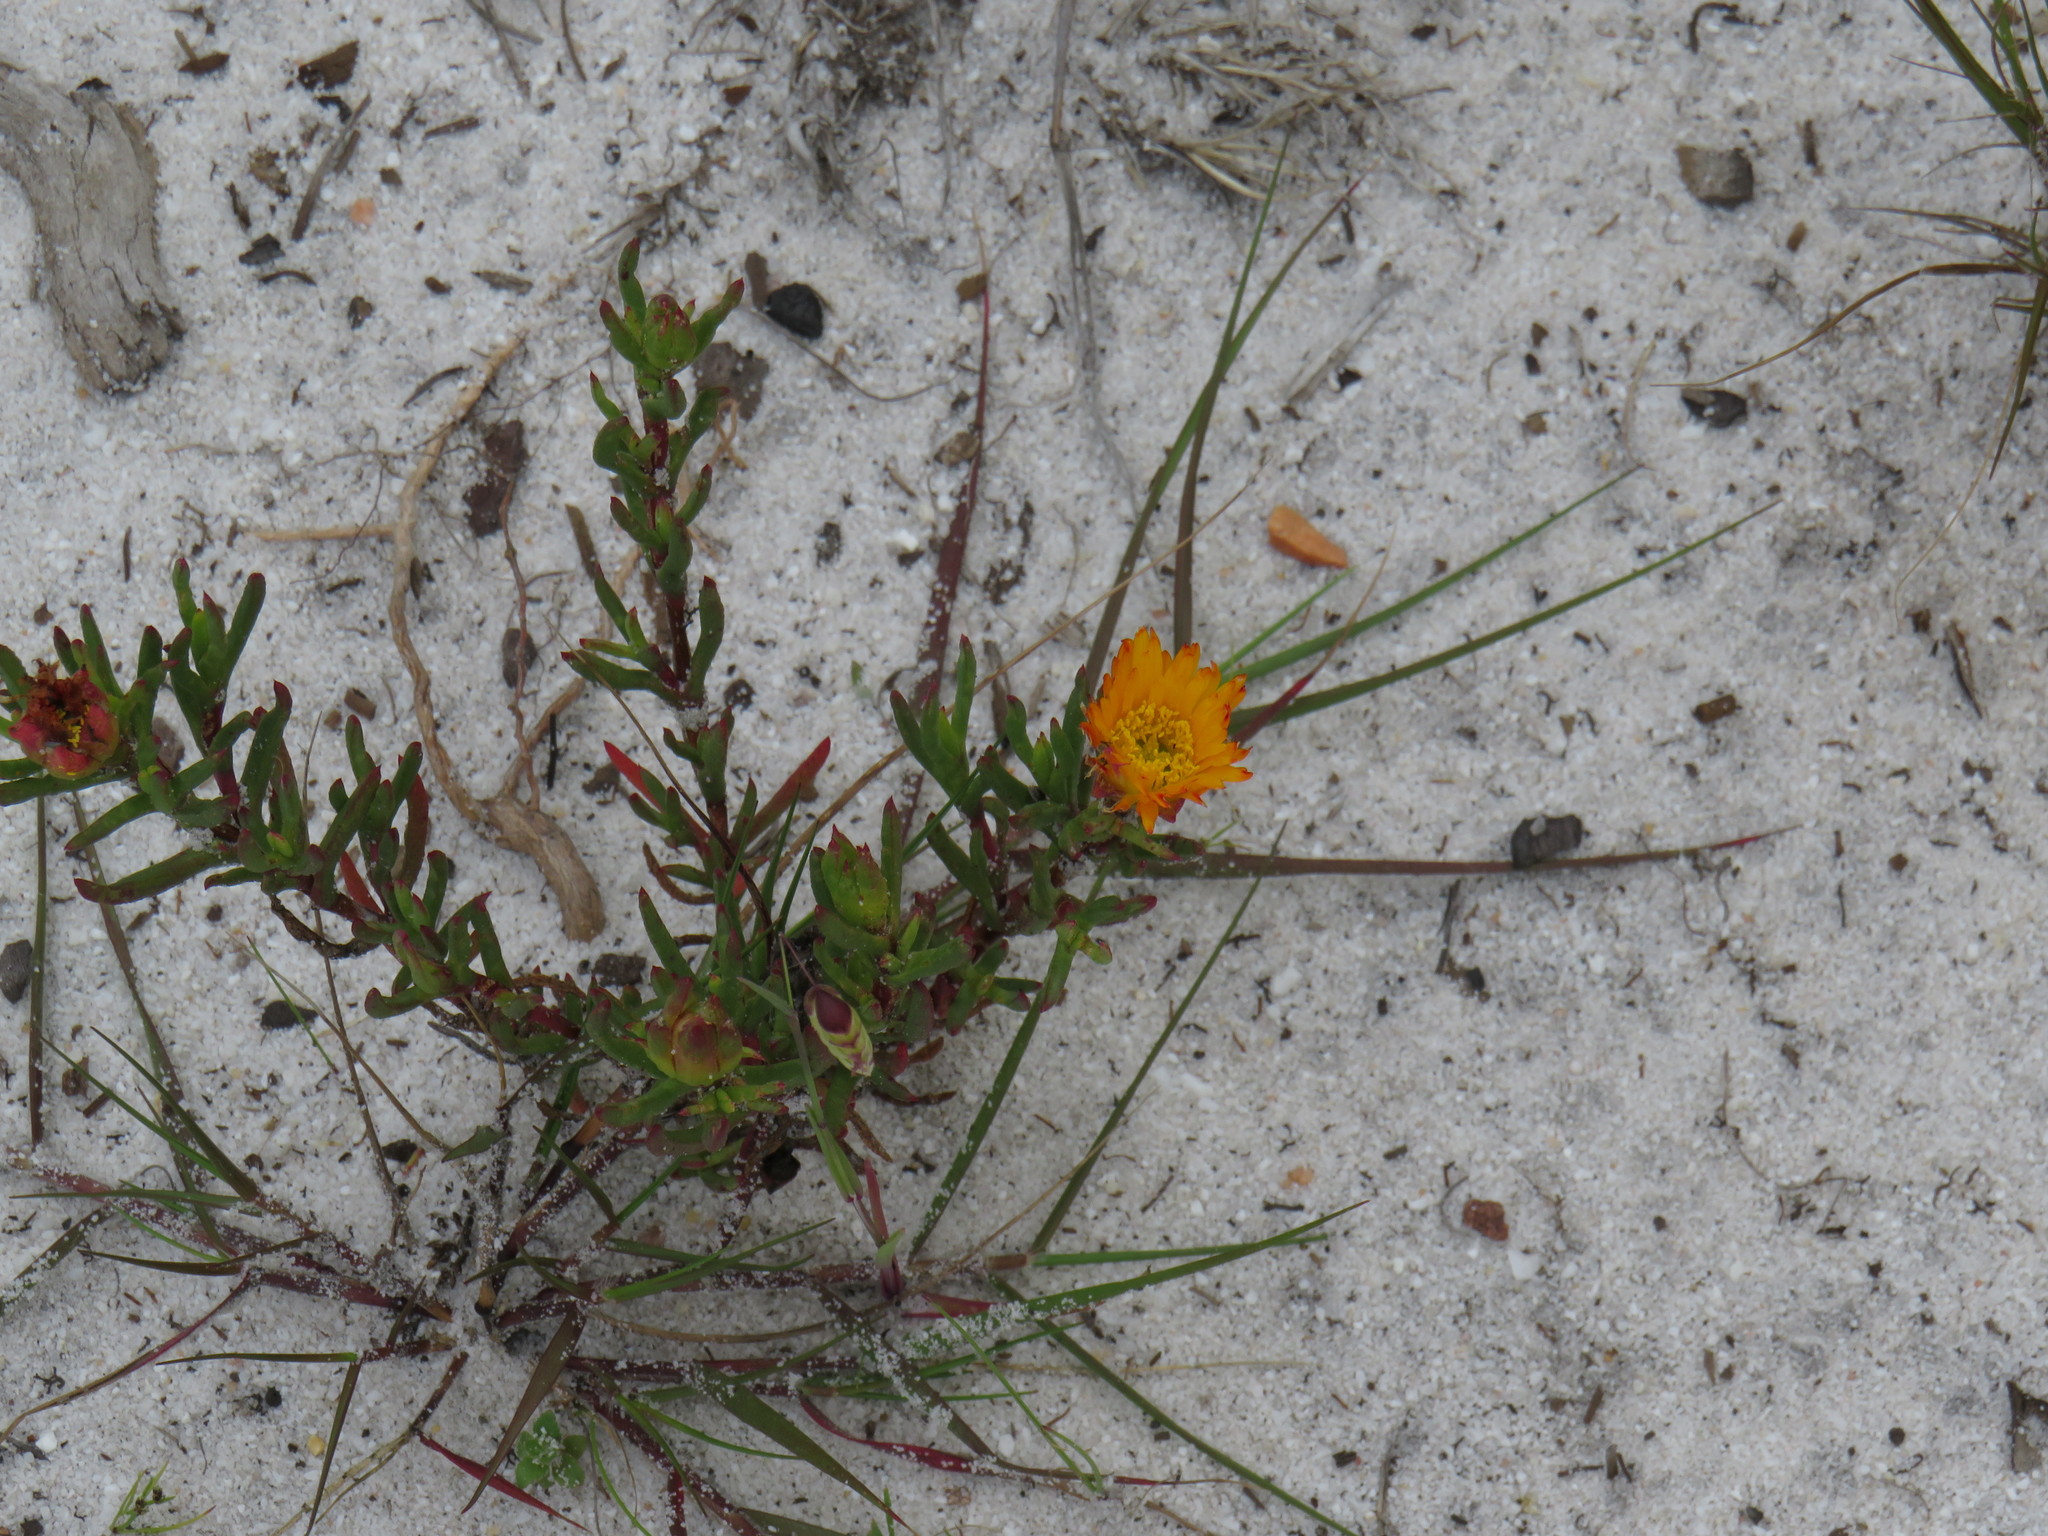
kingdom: Plantae
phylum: Tracheophyta
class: Magnoliopsida
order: Caryophyllales
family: Aizoaceae
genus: Lampranthus
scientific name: Lampranthus bicolor
